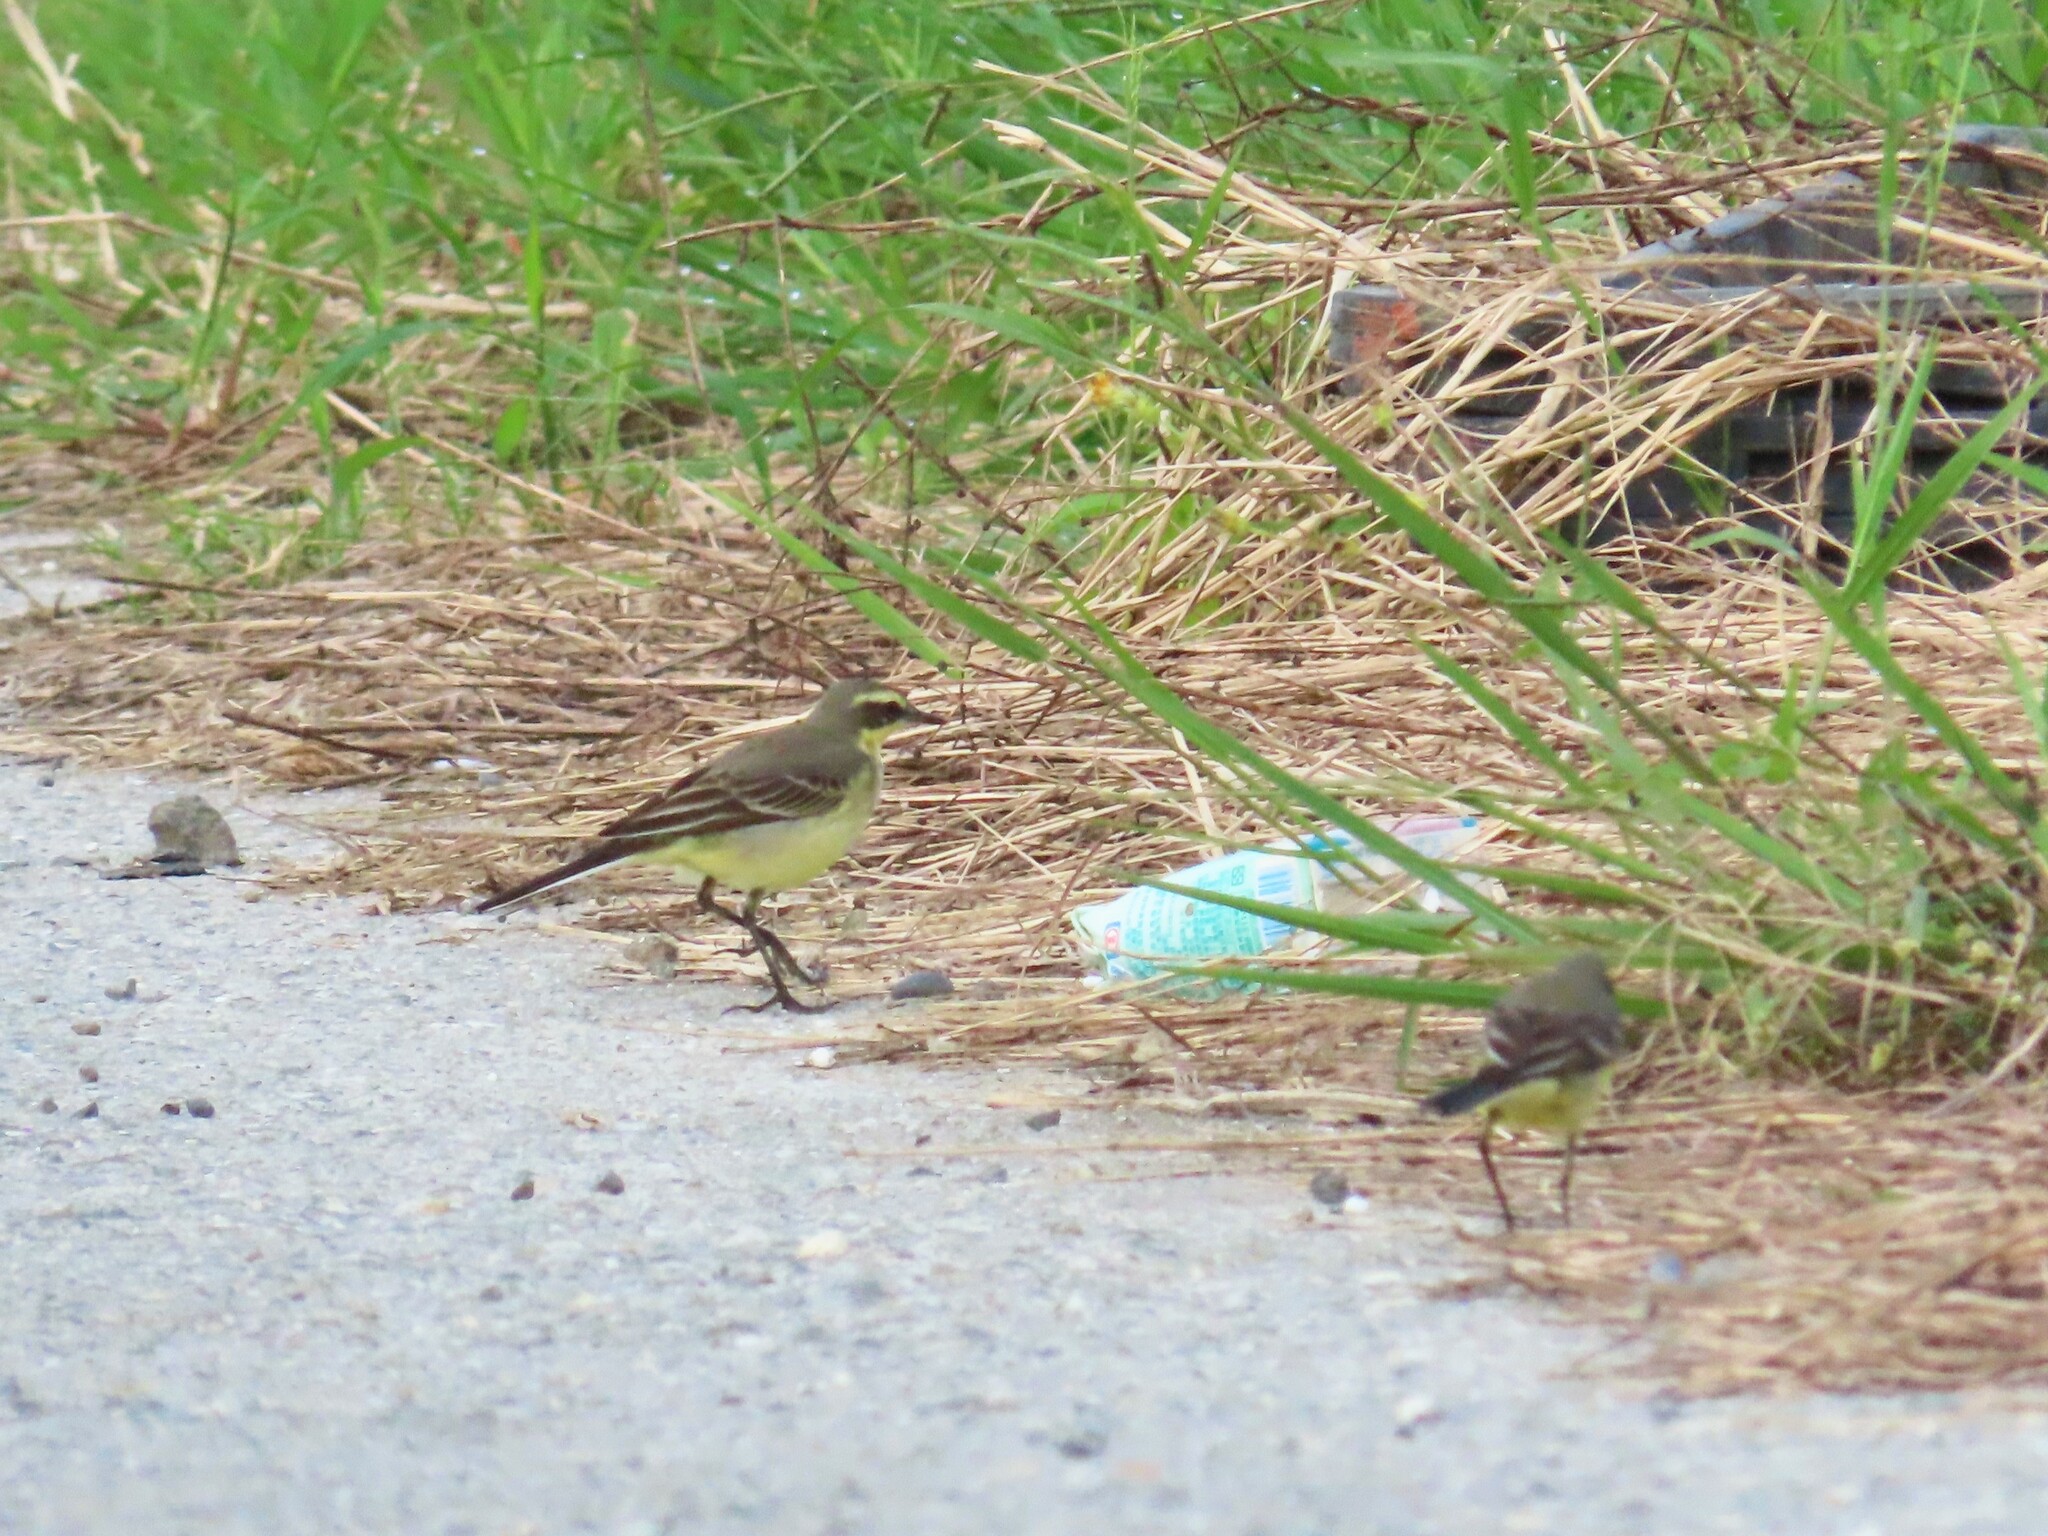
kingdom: Animalia
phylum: Chordata
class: Aves
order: Passeriformes
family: Motacillidae
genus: Motacilla
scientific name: Motacilla tschutschensis
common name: Eastern yellow wagtail
